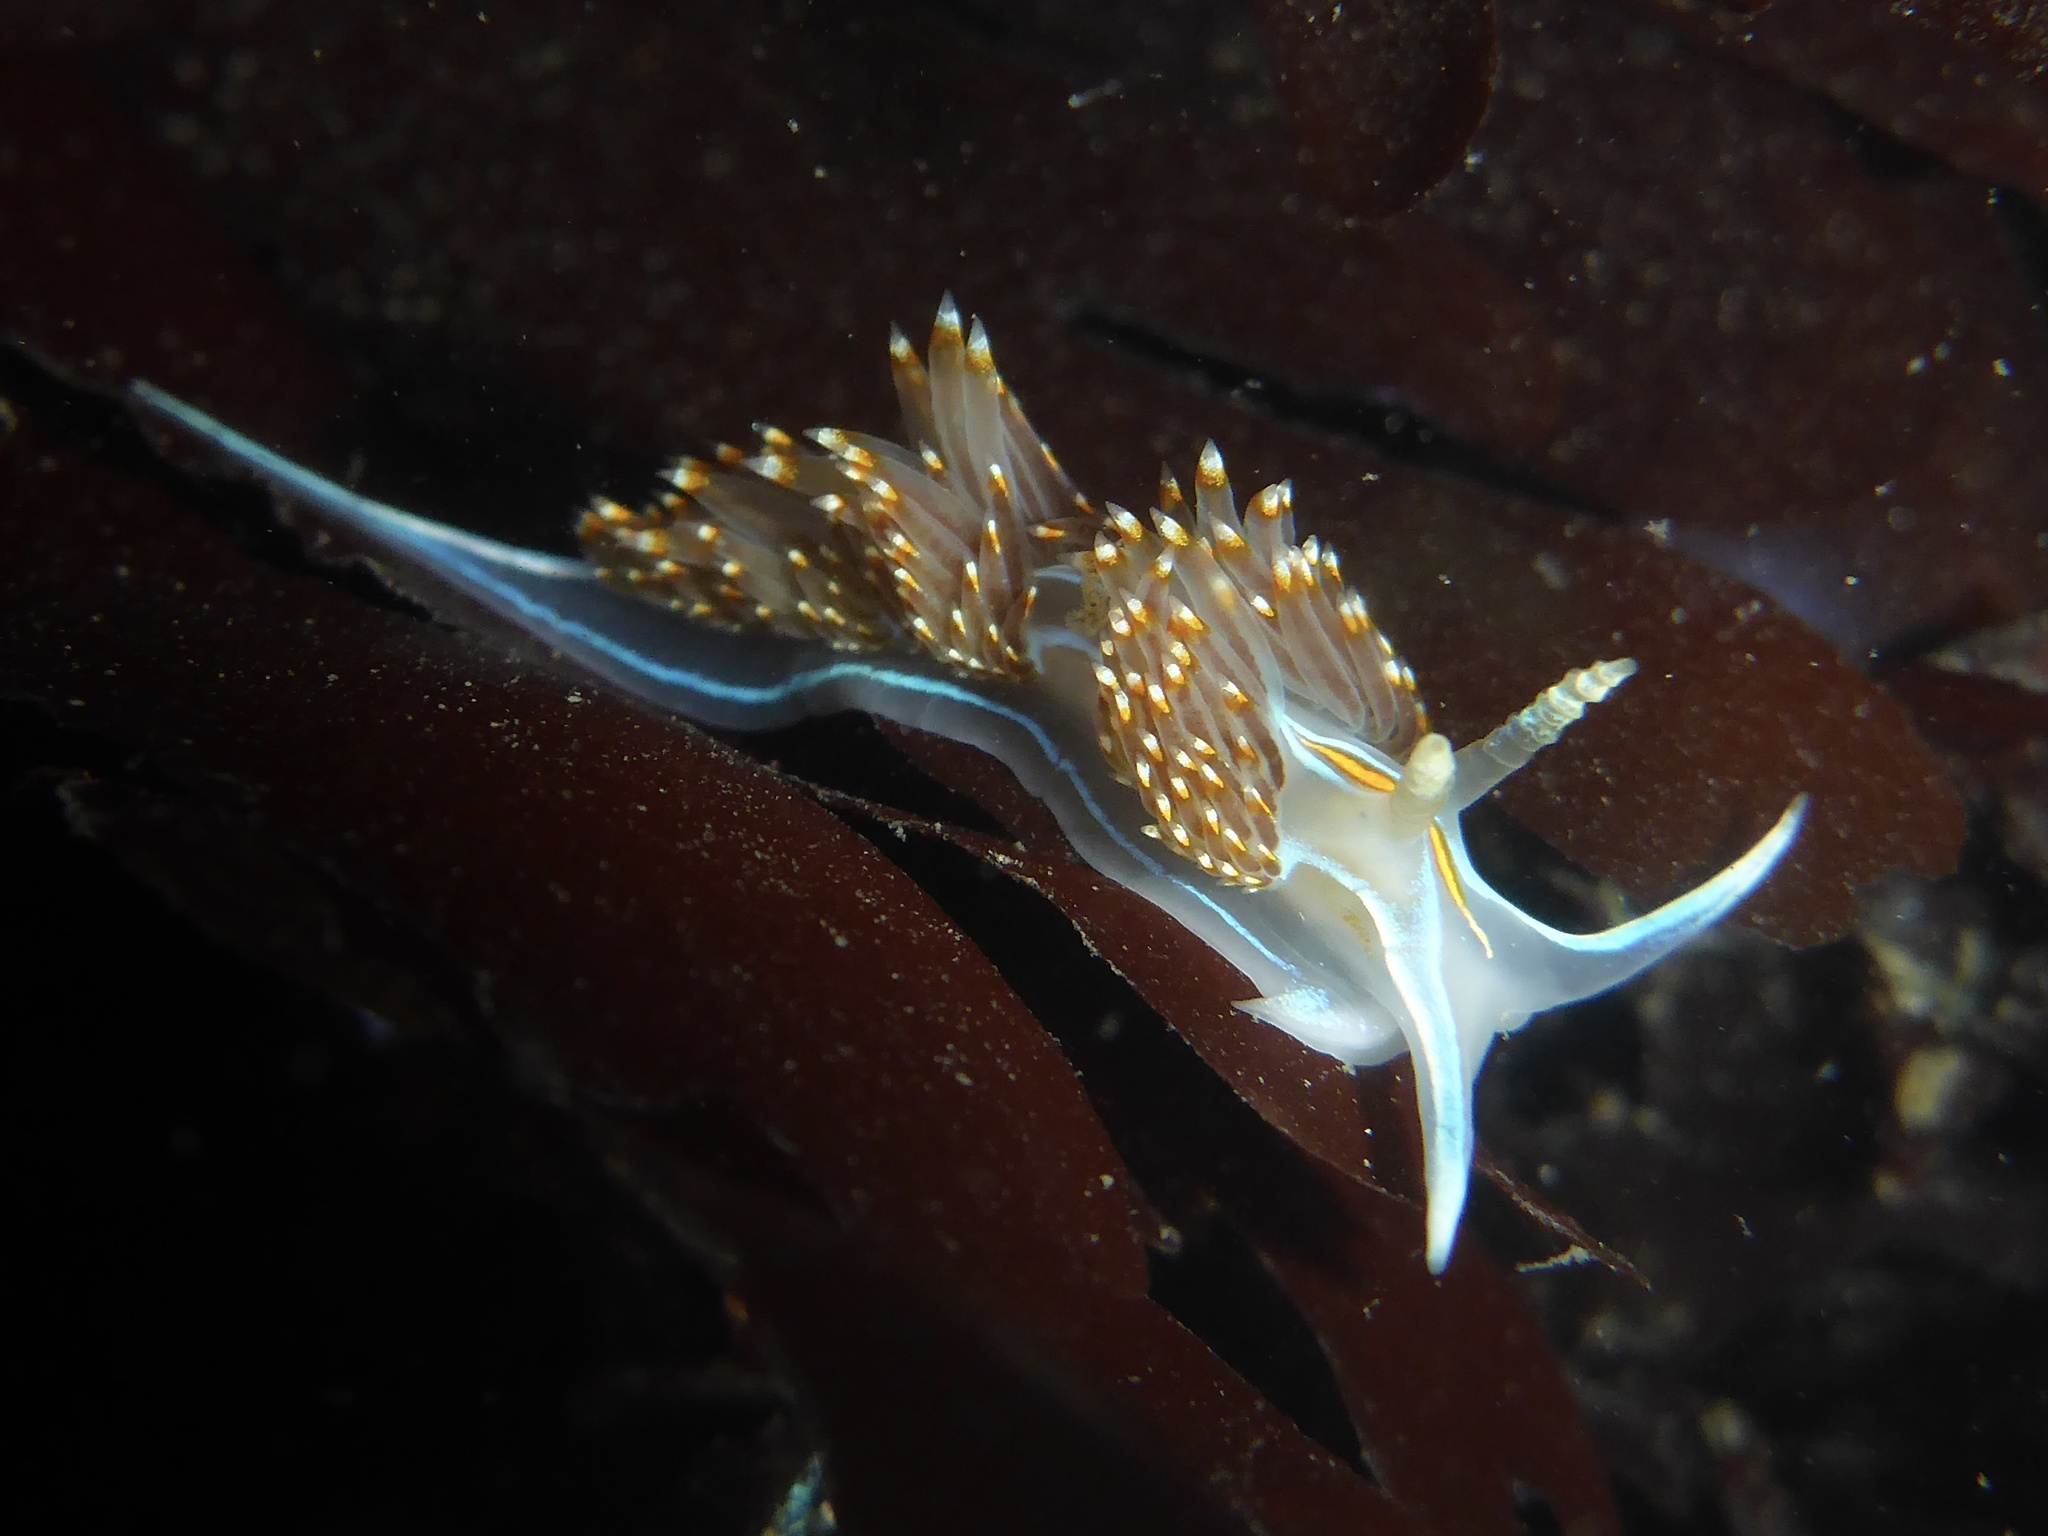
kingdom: Animalia
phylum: Mollusca
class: Gastropoda
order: Nudibranchia
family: Myrrhinidae
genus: Hermissenda
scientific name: Hermissenda opalescens
